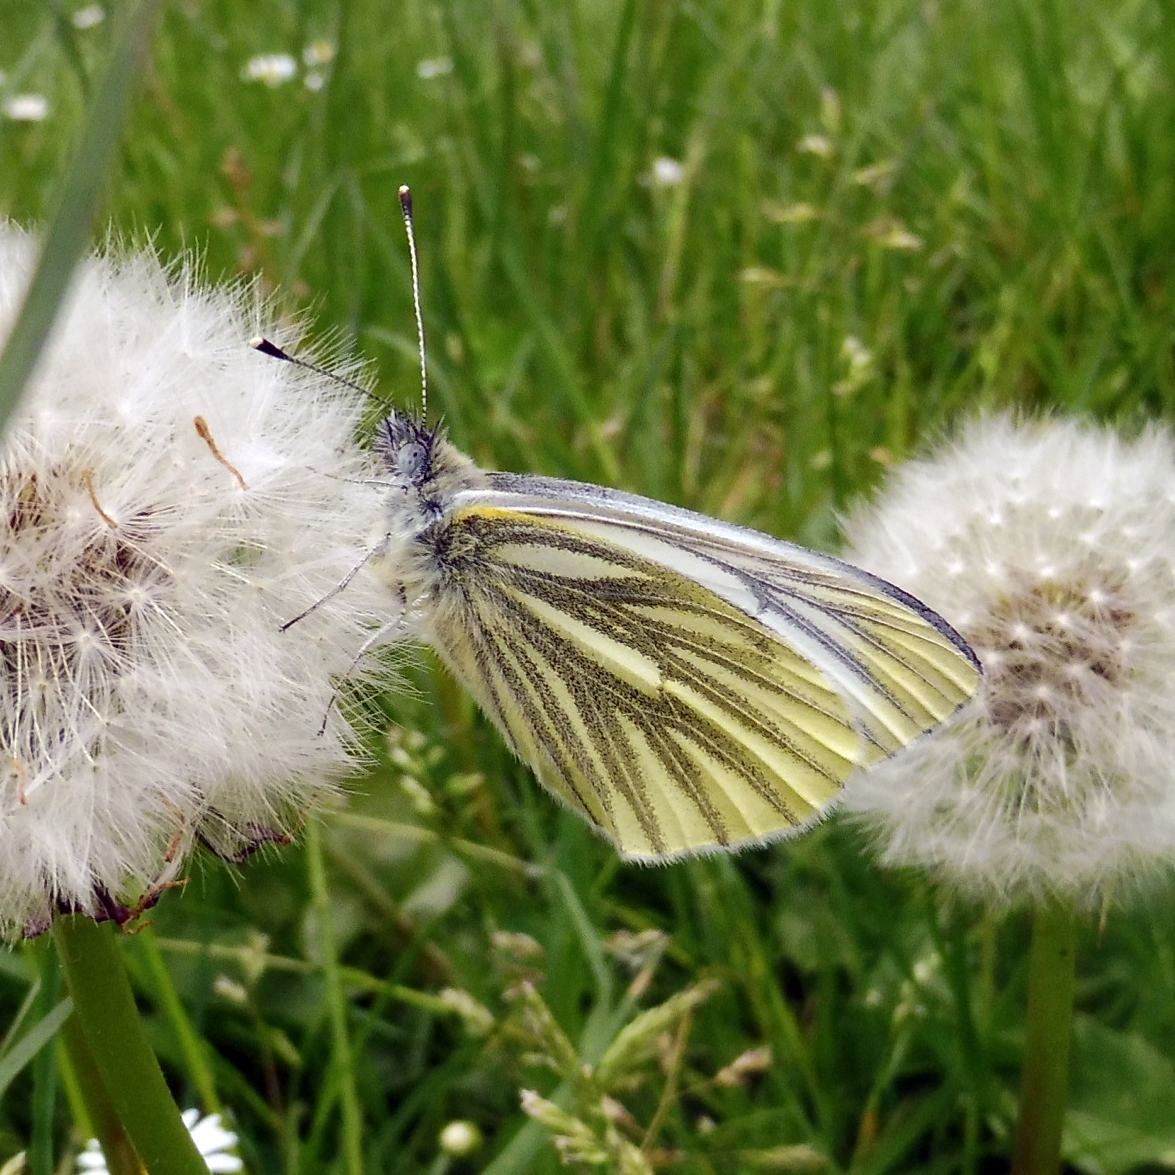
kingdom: Animalia
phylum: Arthropoda
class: Insecta
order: Lepidoptera
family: Pieridae
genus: Pieris
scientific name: Pieris napi
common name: Green-veined white
